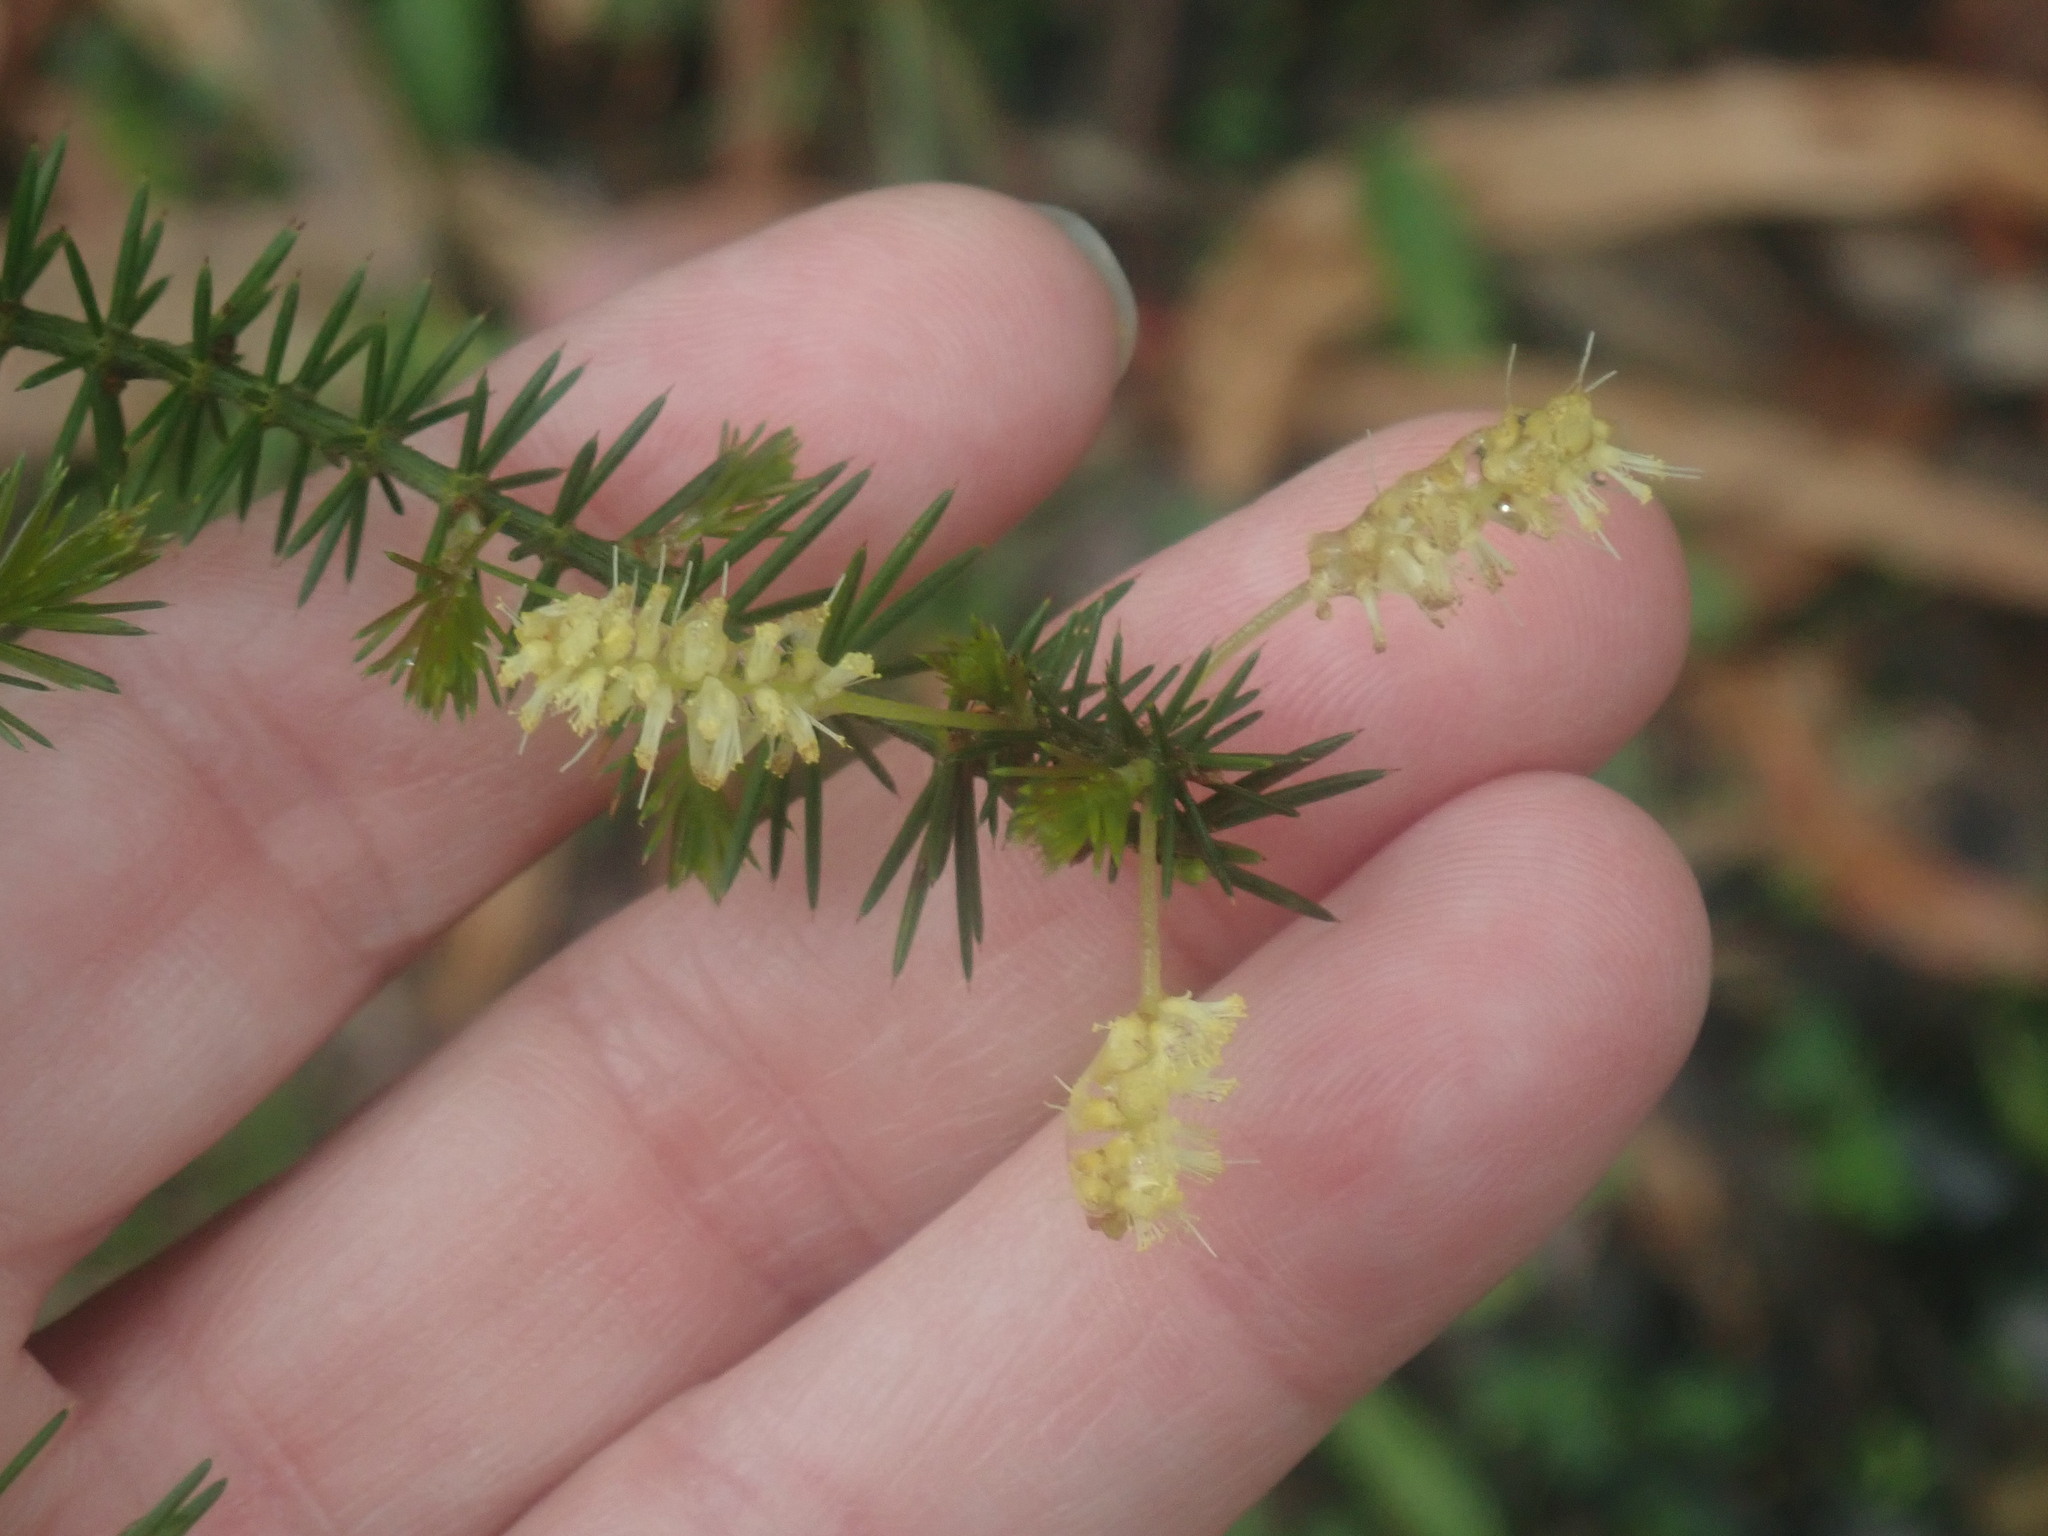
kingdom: Plantae
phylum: Tracheophyta
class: Magnoliopsida
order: Fabales
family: Fabaceae
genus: Acacia
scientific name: Acacia verticillata
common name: Prickly moses
